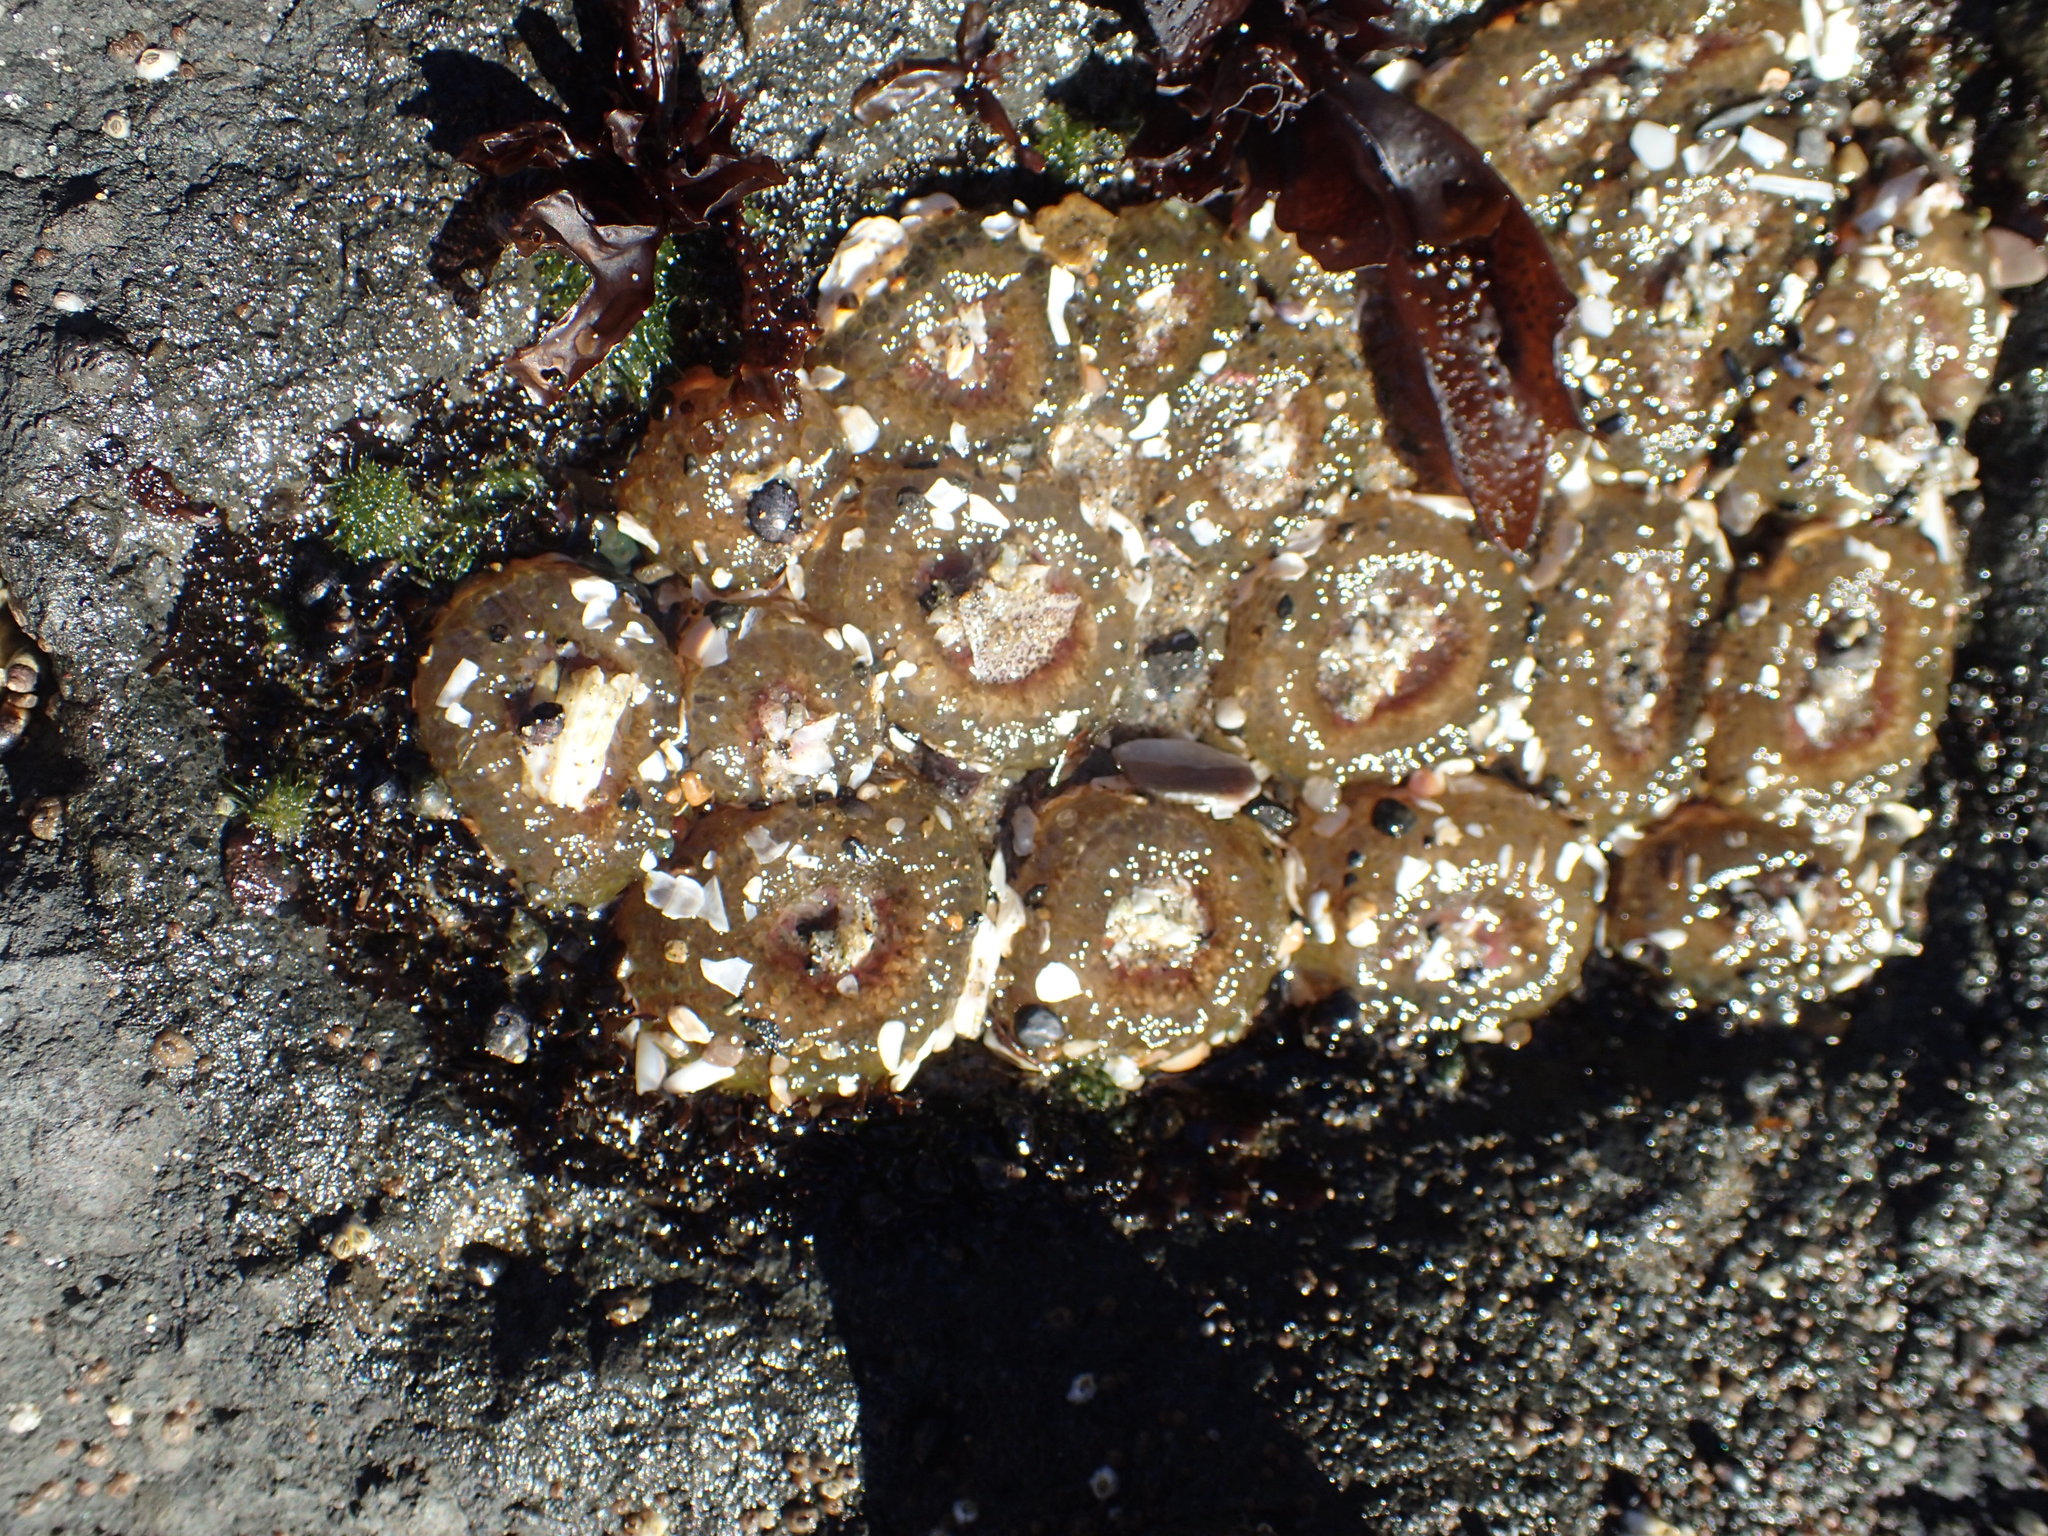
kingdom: Animalia
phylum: Cnidaria
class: Anthozoa
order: Actiniaria
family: Actiniidae
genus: Anthopleura
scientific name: Anthopleura elegantissima
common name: Clonal anemone
